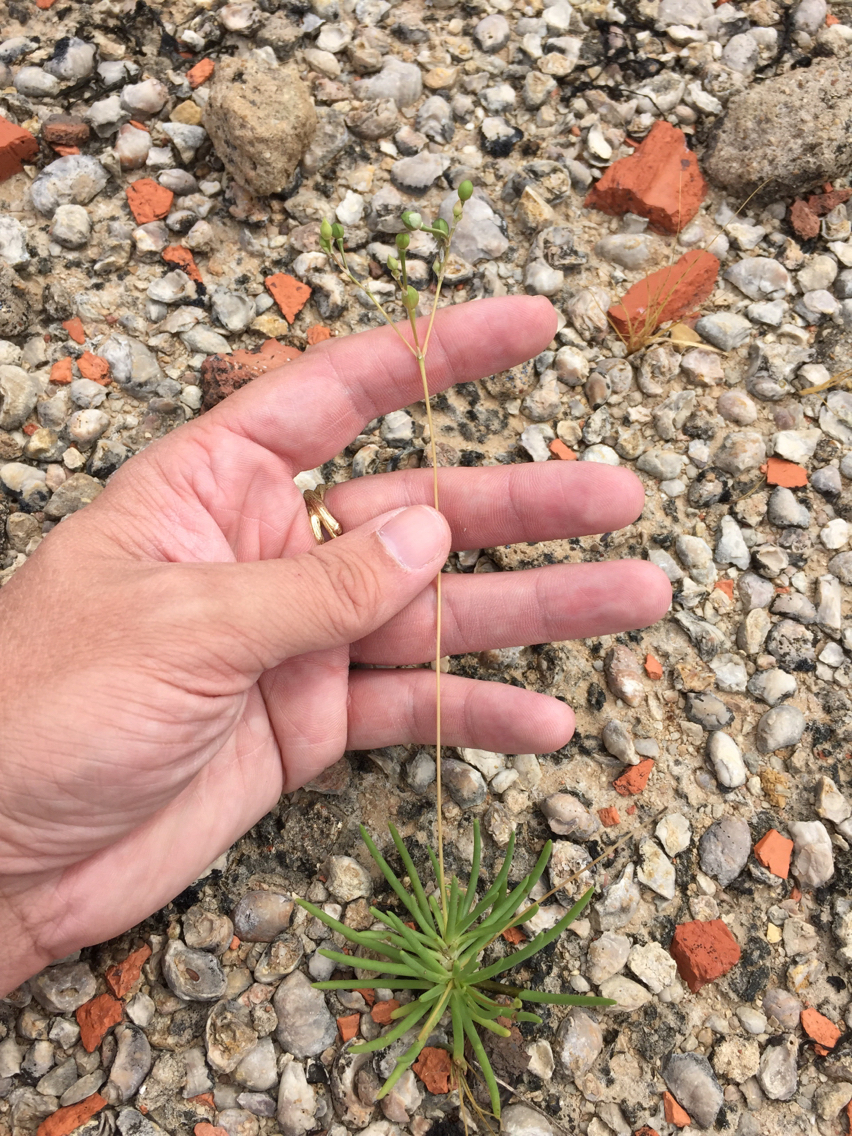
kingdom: Plantae
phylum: Tracheophyta
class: Magnoliopsida
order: Caryophyllales
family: Montiaceae
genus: Phemeranthus
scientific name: Phemeranthus calcaricus
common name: Limestone fameflower
